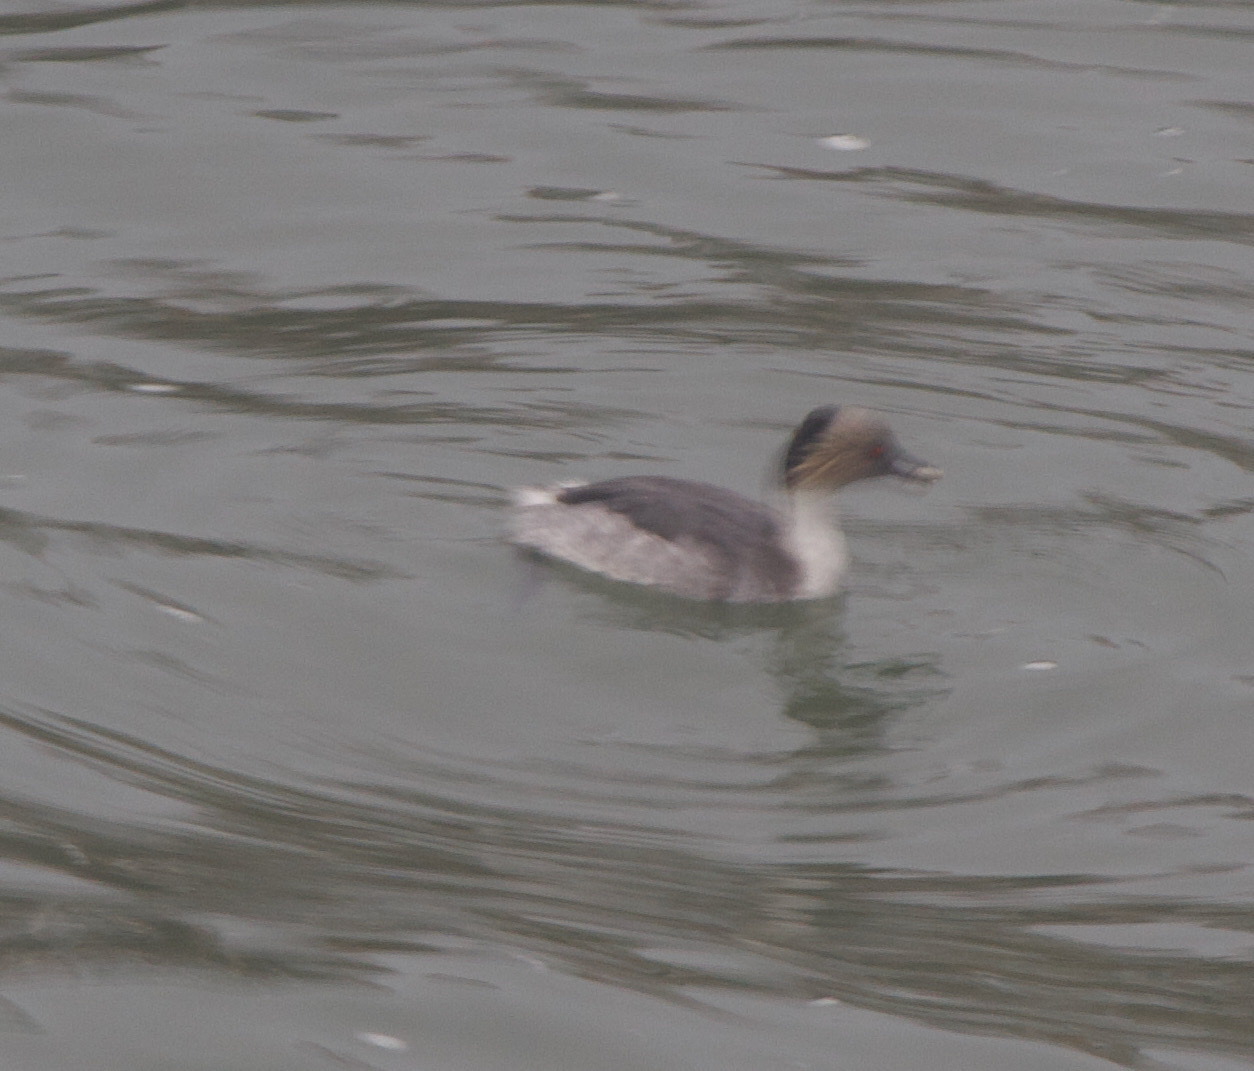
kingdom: Animalia
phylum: Chordata
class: Aves
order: Podicipediformes
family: Podicipedidae
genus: Podiceps
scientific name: Podiceps occipitalis
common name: Silvery grebe
